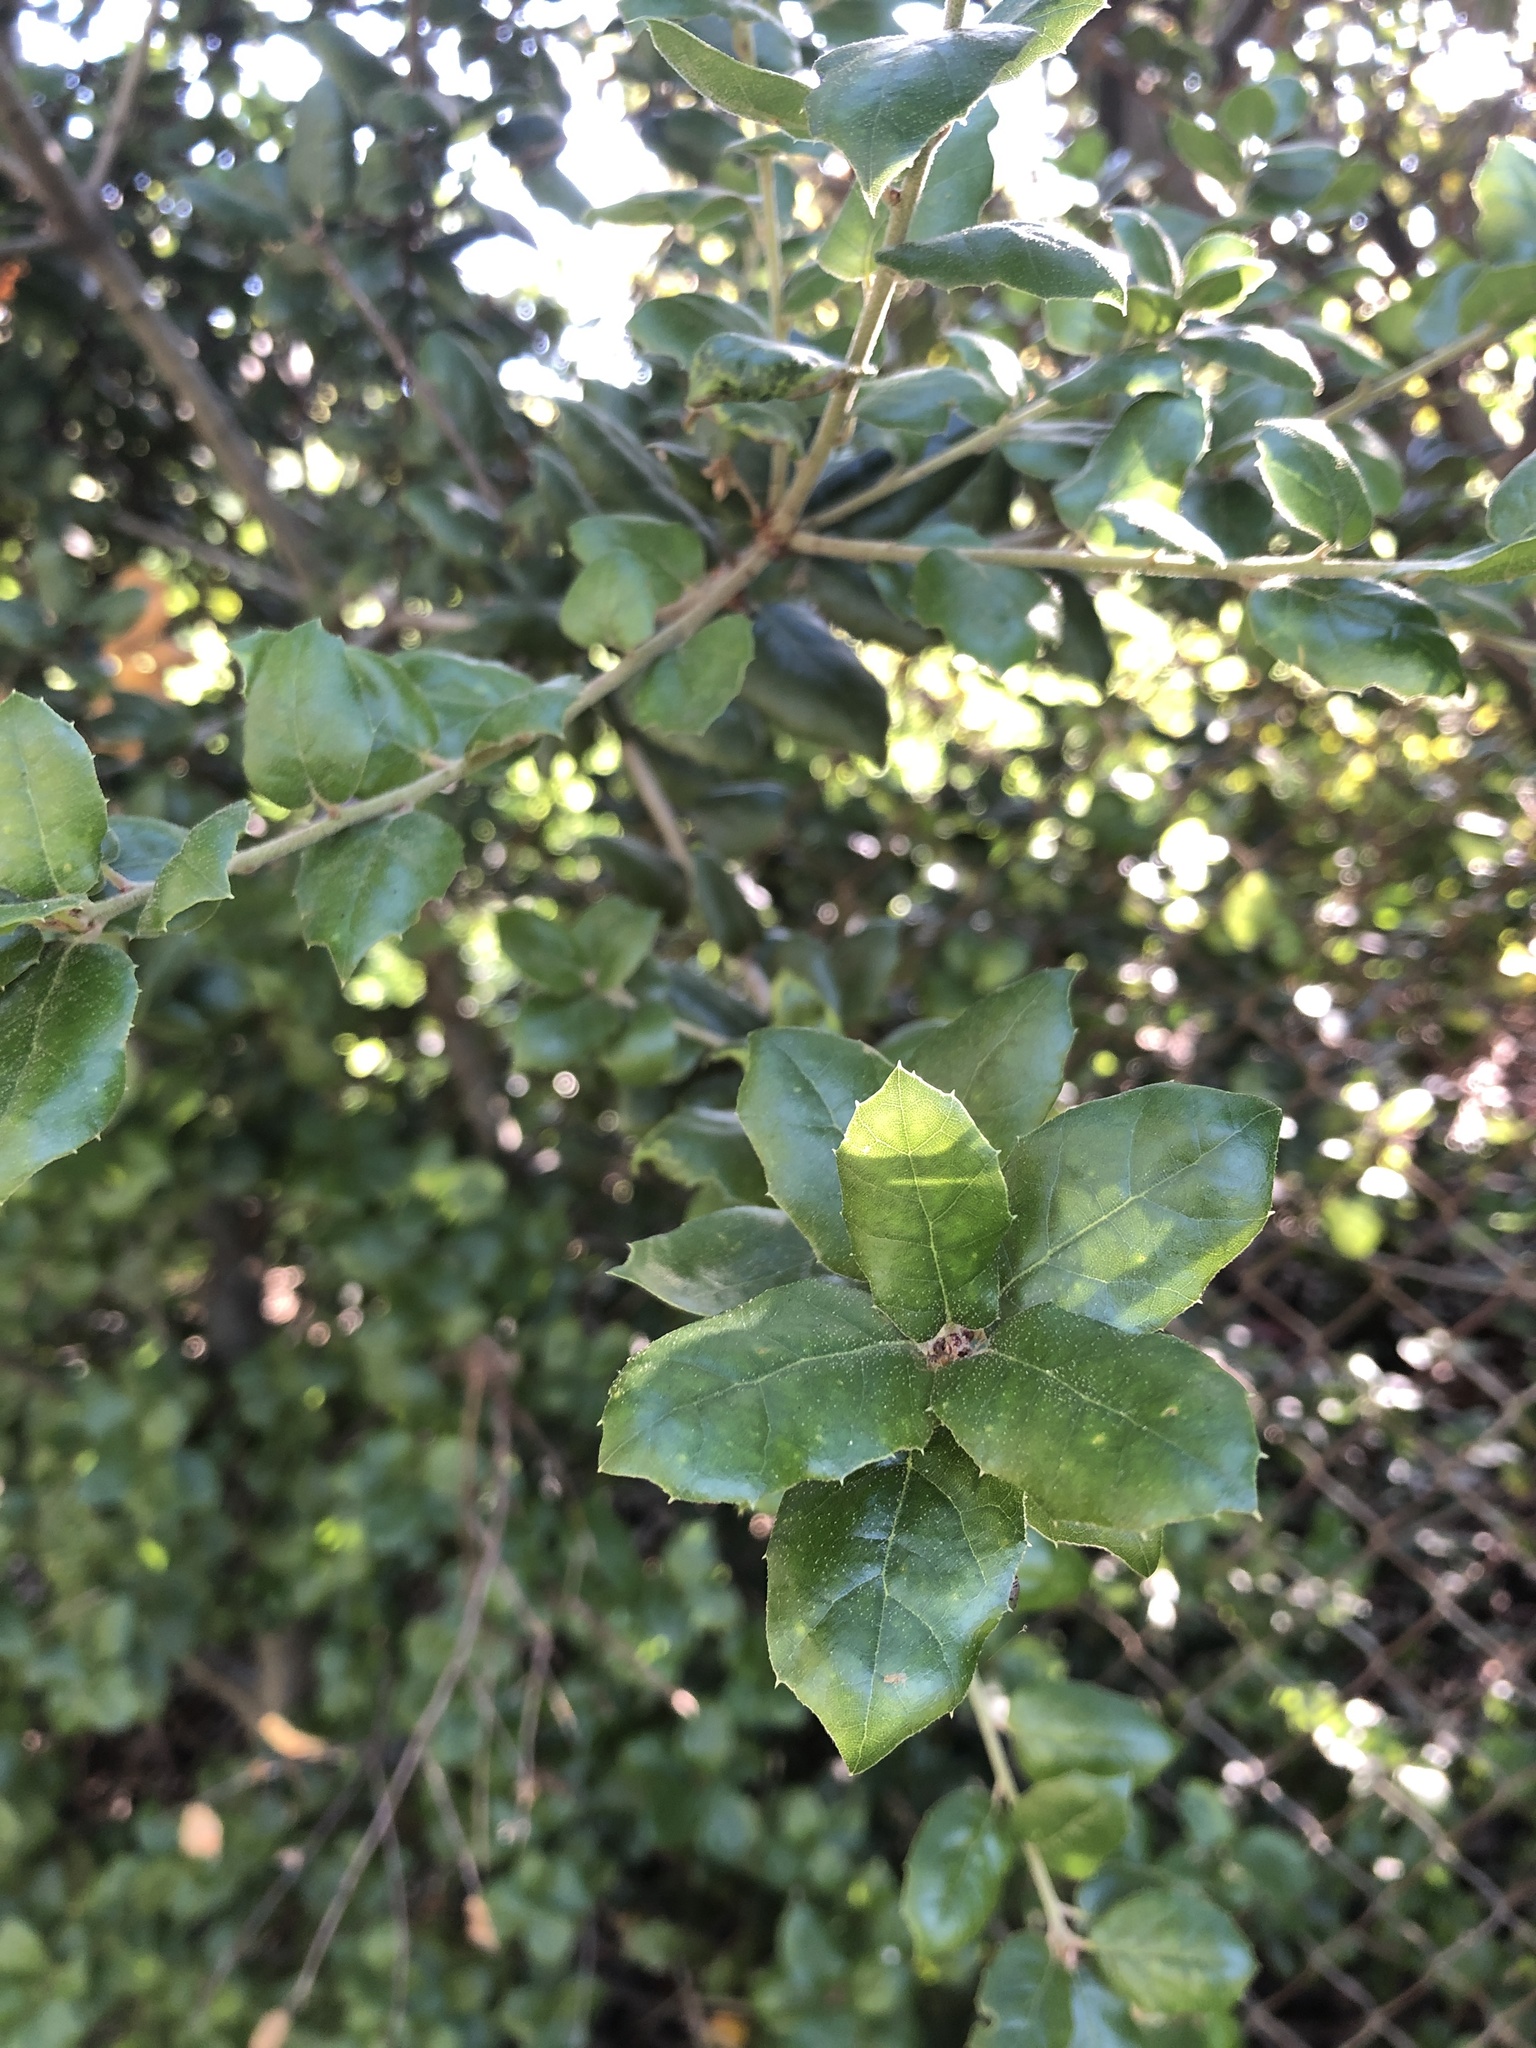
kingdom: Plantae
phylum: Tracheophyta
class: Magnoliopsida
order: Fagales
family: Fagaceae
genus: Quercus
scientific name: Quercus agrifolia
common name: California live oak
